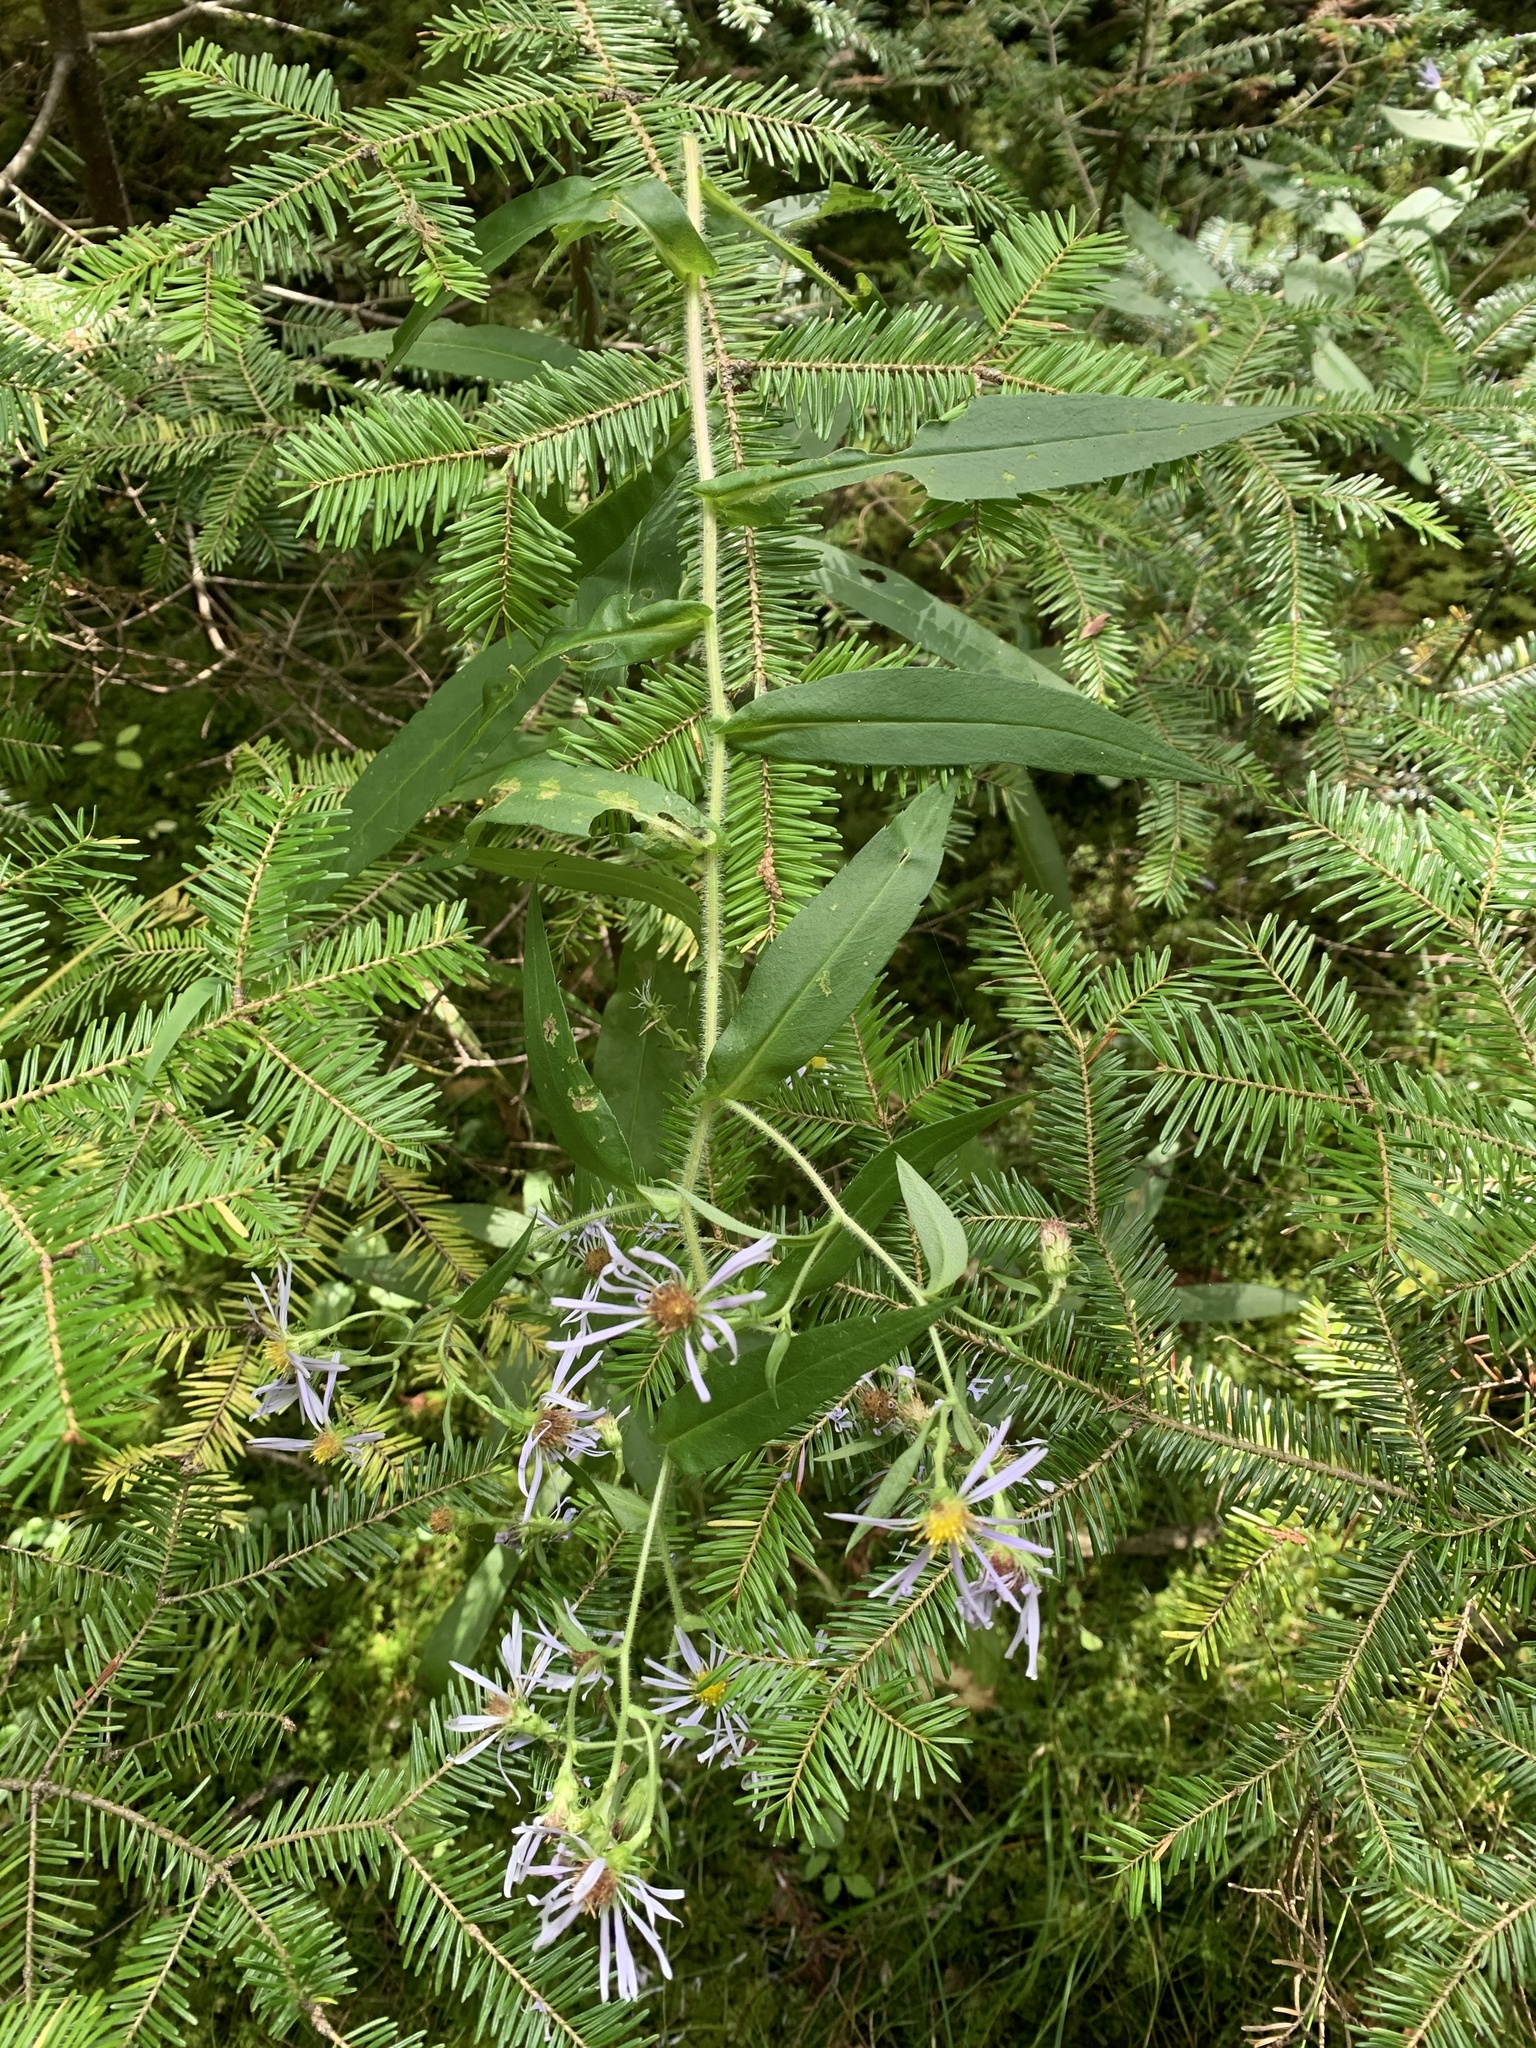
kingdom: Plantae
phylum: Tracheophyta
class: Magnoliopsida
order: Asterales
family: Asteraceae
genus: Symphyotrichum
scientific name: Symphyotrichum puniceum
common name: Bog aster
